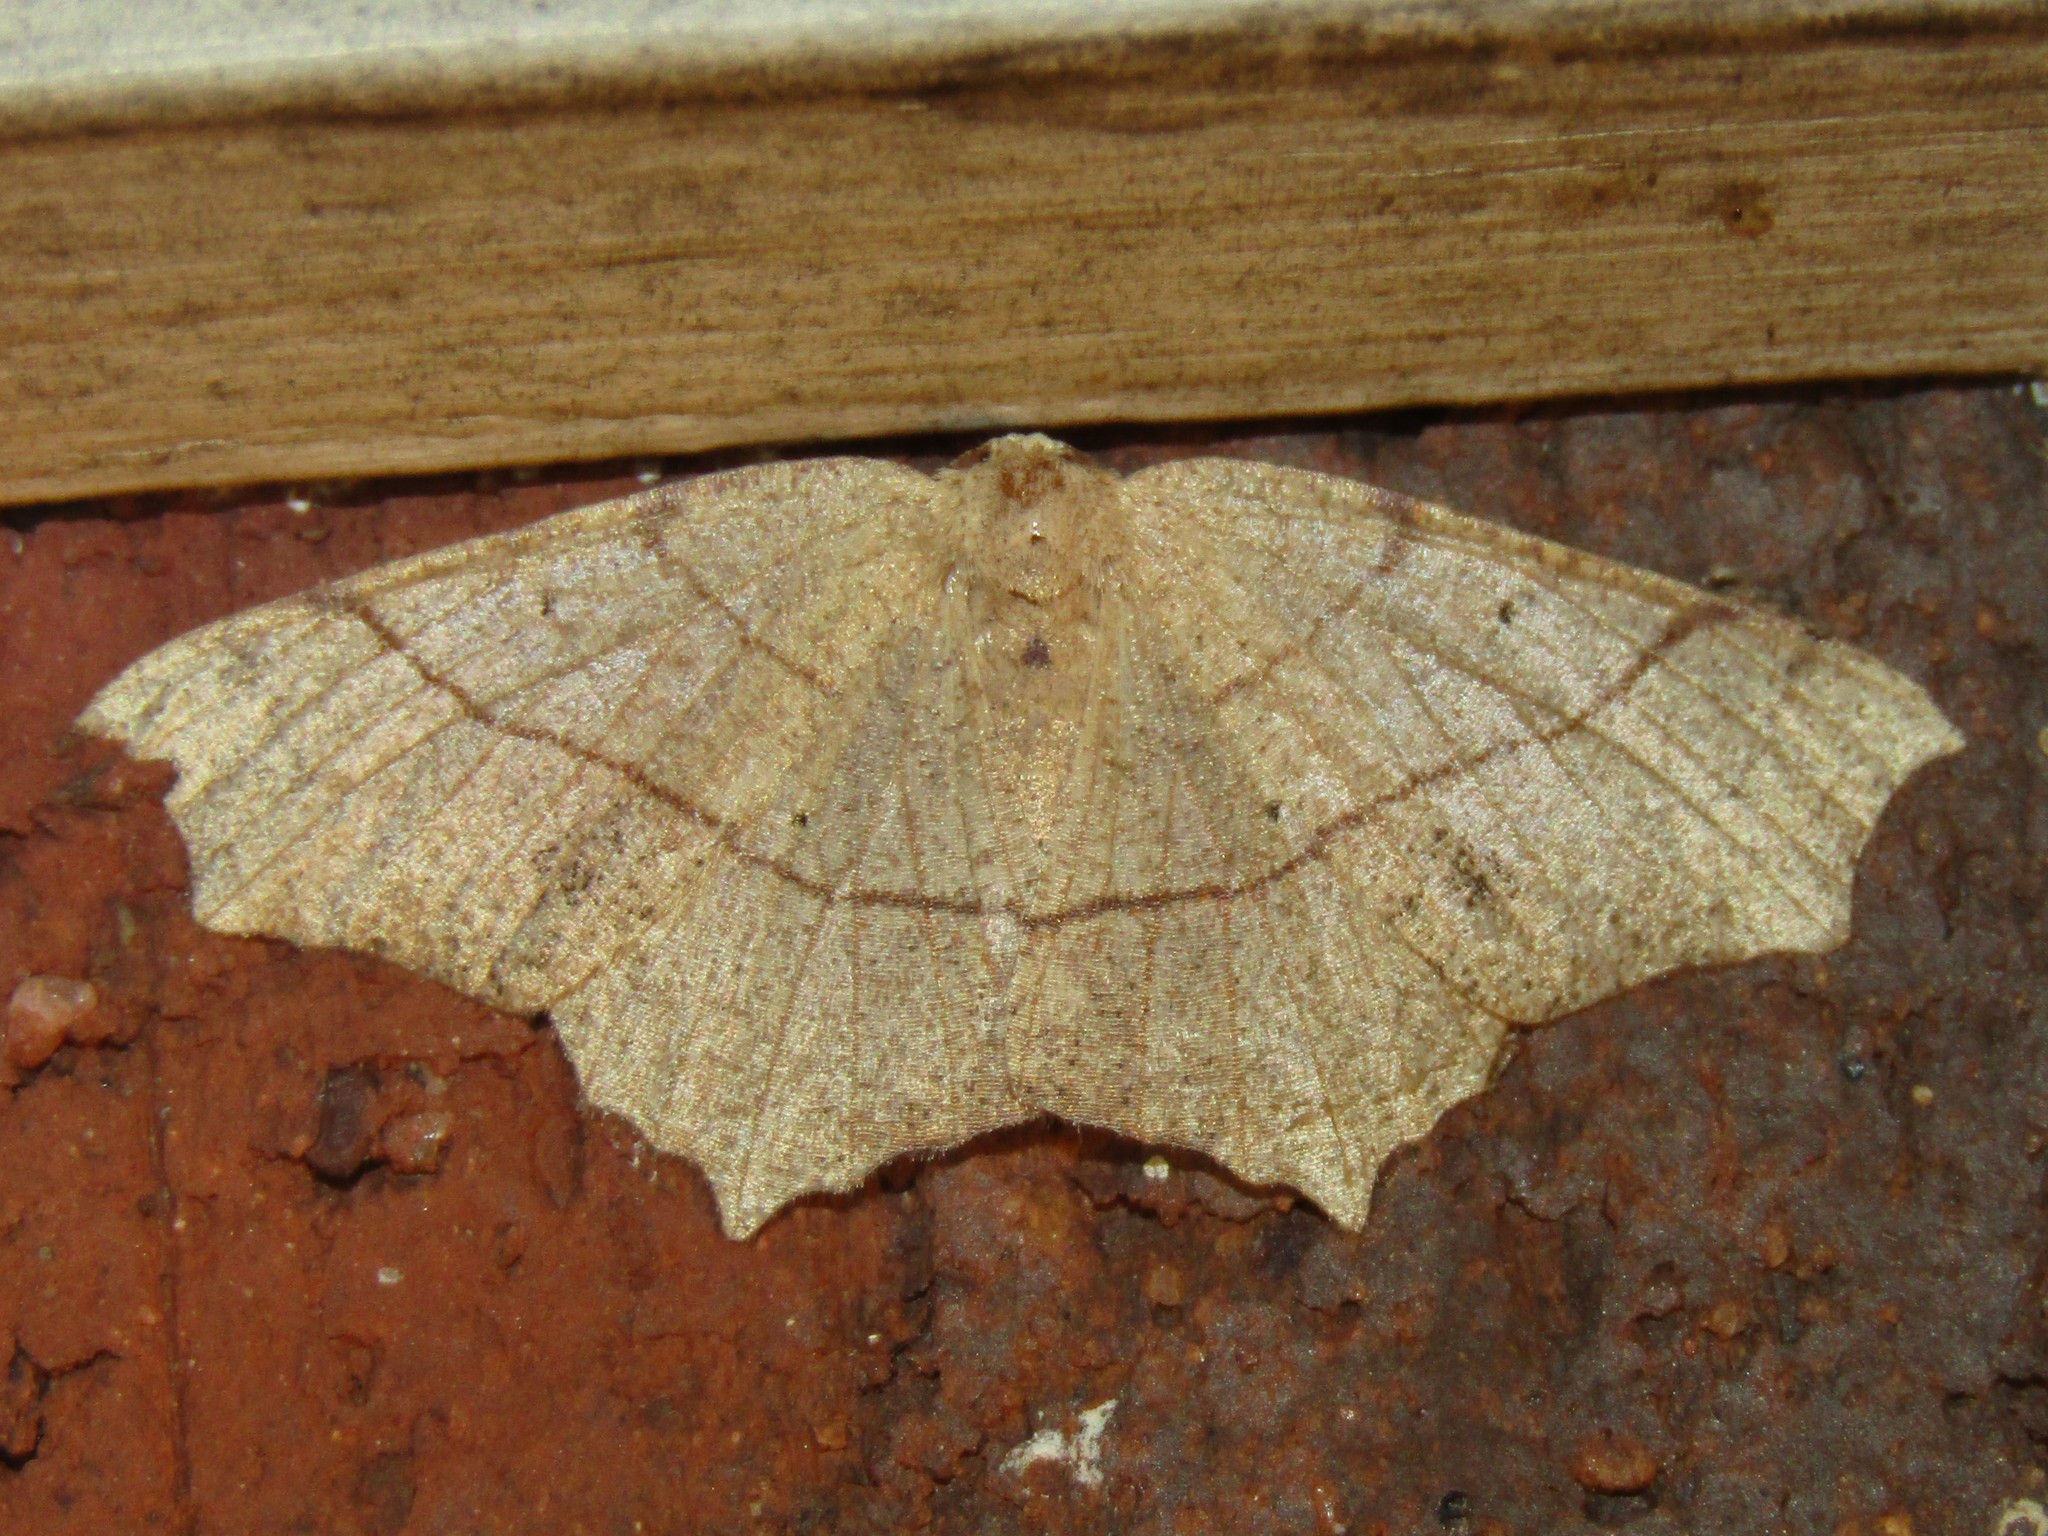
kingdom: Animalia
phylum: Arthropoda
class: Insecta
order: Lepidoptera
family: Geometridae
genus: Besma
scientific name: Besma quercivoraria
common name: Oak besma
